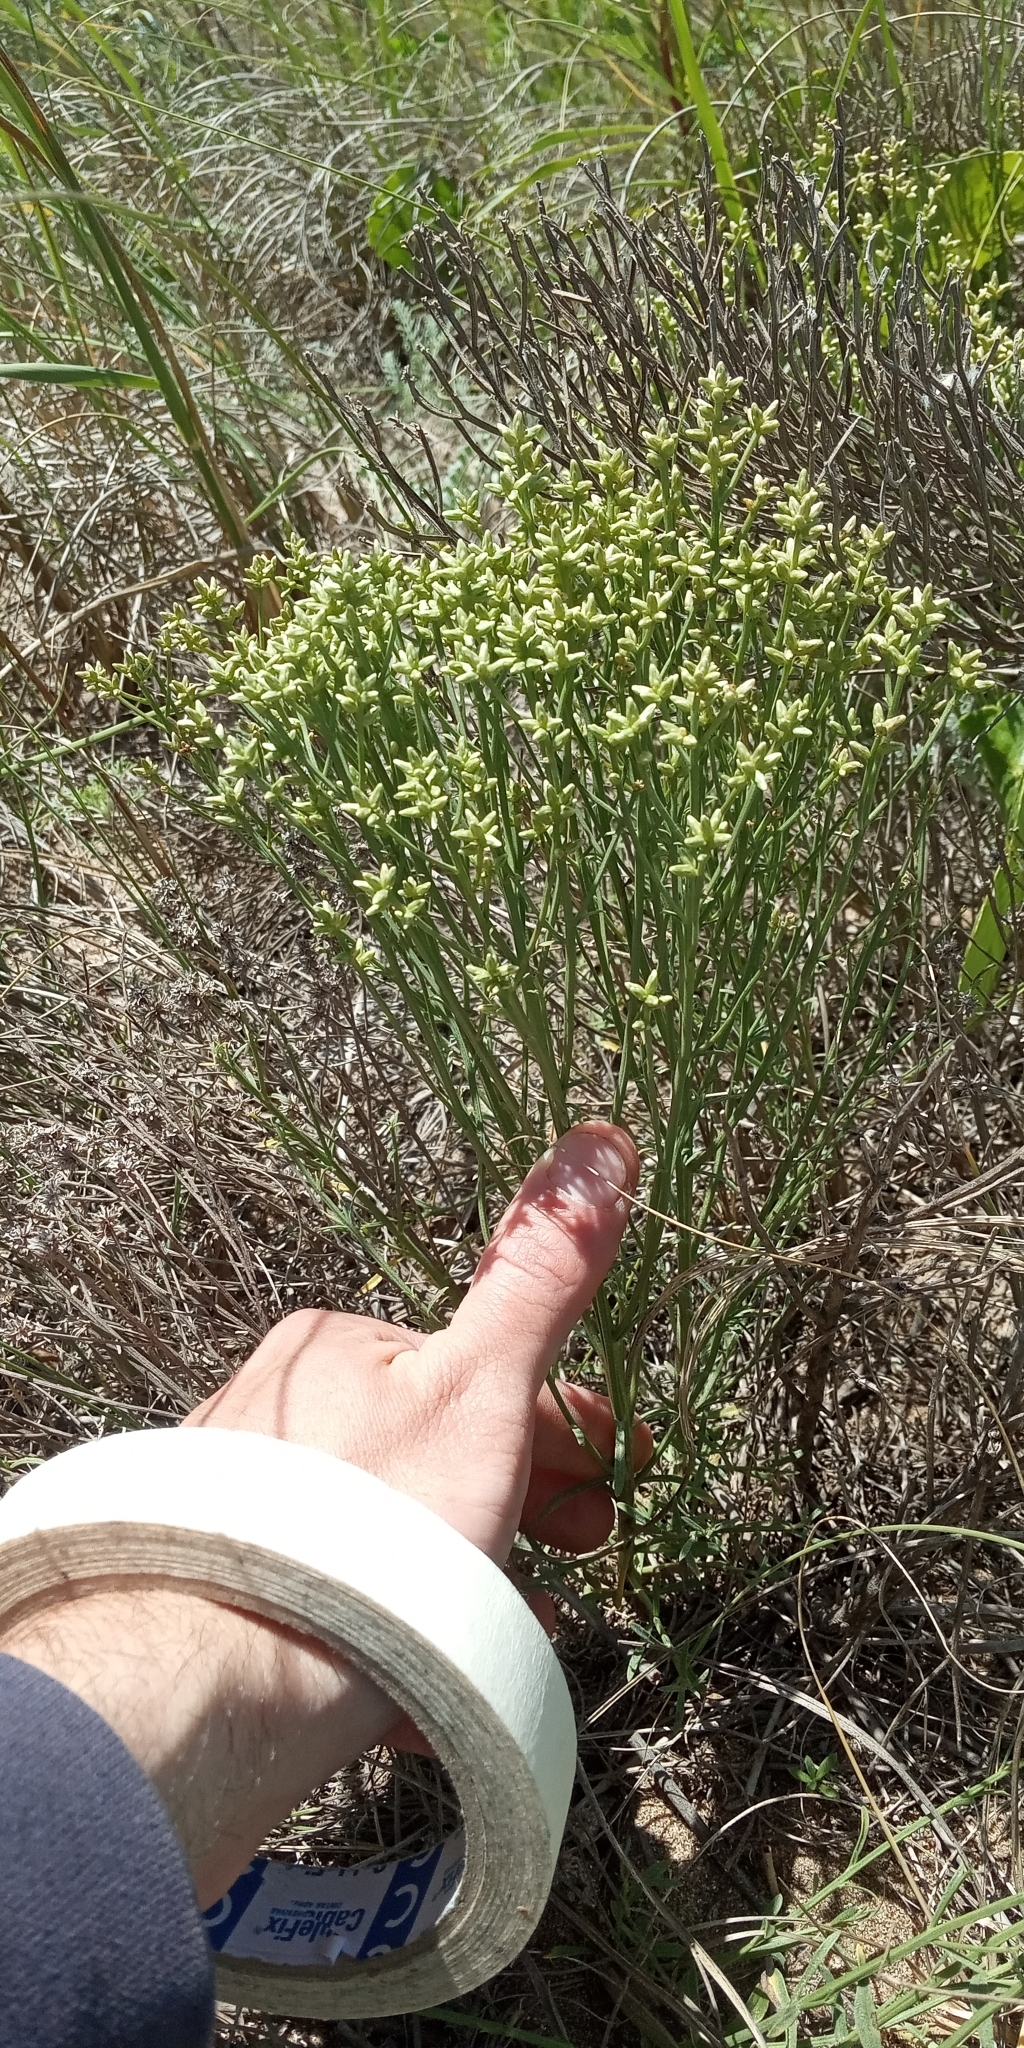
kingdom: Plantae
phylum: Tracheophyta
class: Magnoliopsida
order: Asterales
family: Asteraceae
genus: Baccharis
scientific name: Baccharis spicata
